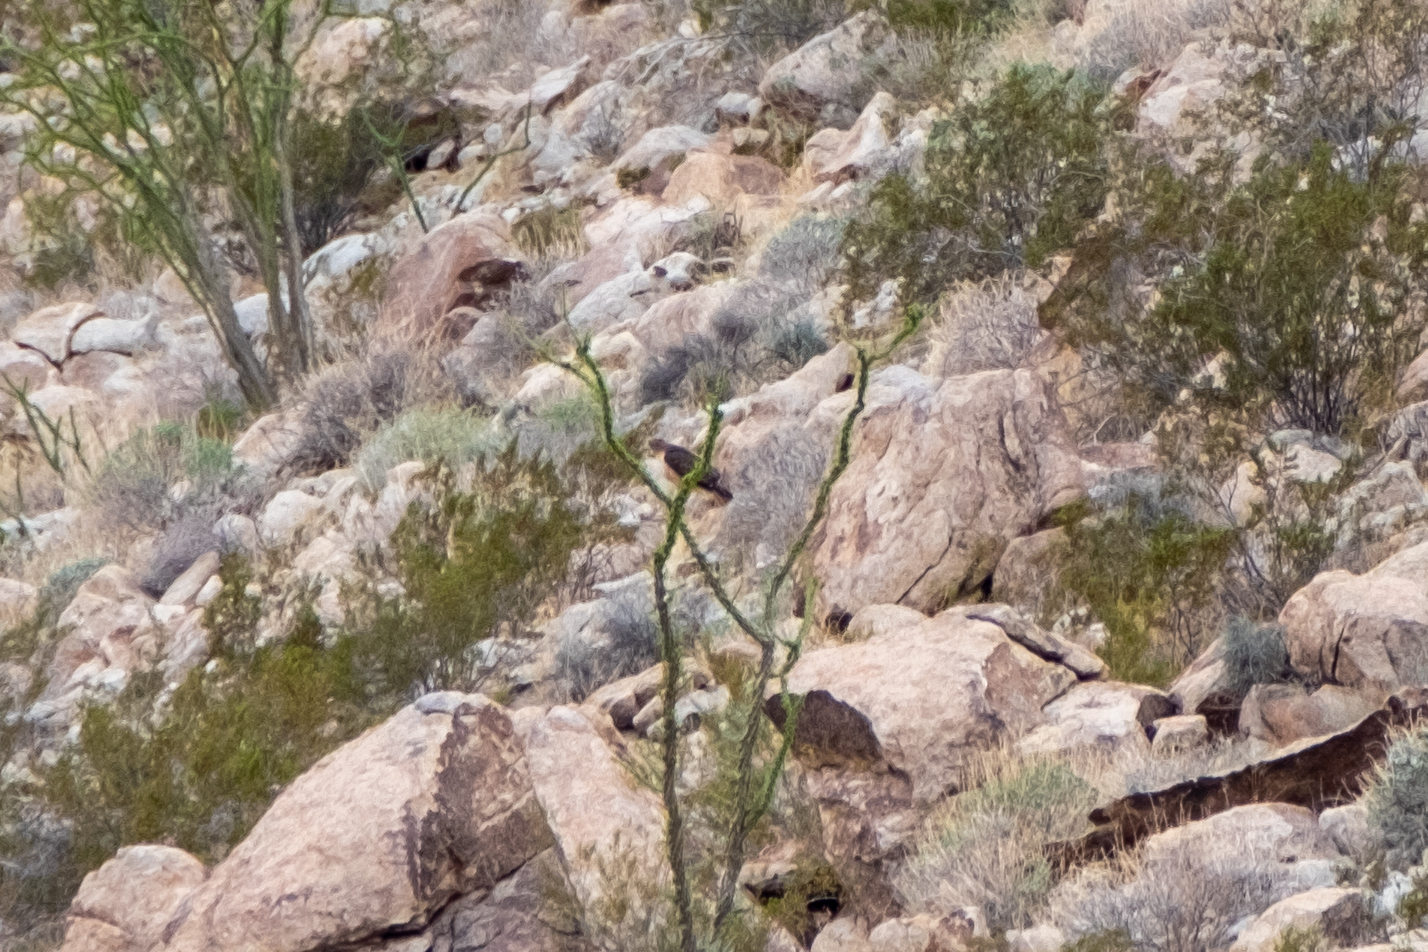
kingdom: Animalia
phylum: Chordata
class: Aves
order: Accipitriformes
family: Accipitridae
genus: Buteo
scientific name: Buteo jamaicensis
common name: Red-tailed hawk
